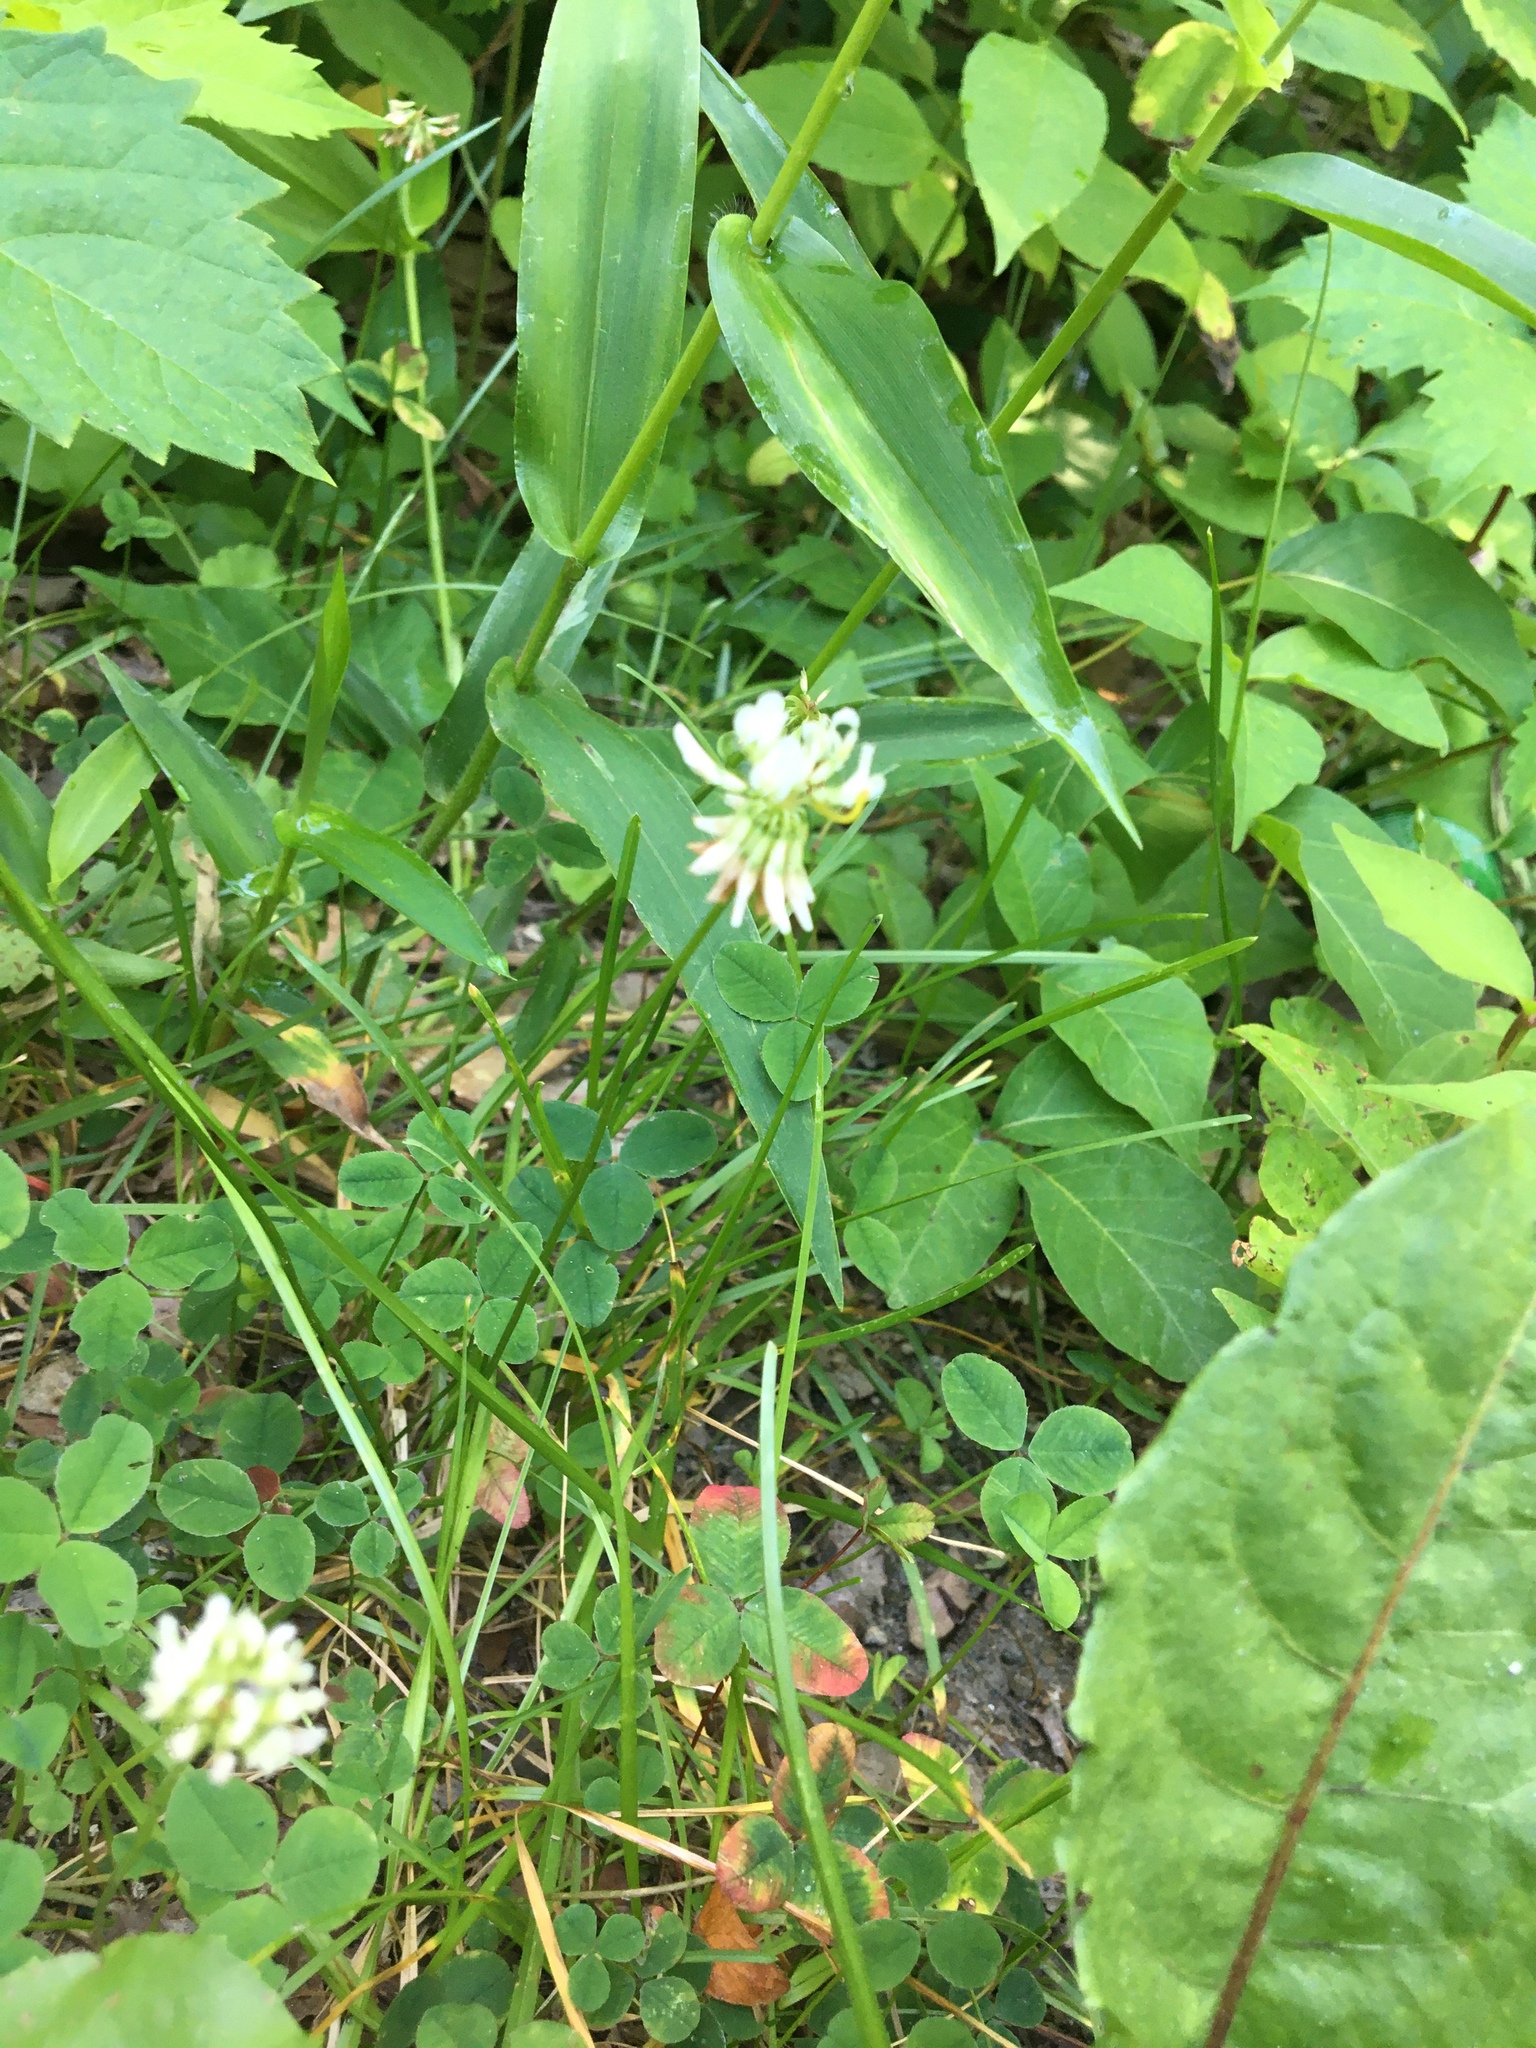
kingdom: Plantae
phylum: Tracheophyta
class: Magnoliopsida
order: Fabales
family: Fabaceae
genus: Trifolium
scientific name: Trifolium repens
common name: White clover
